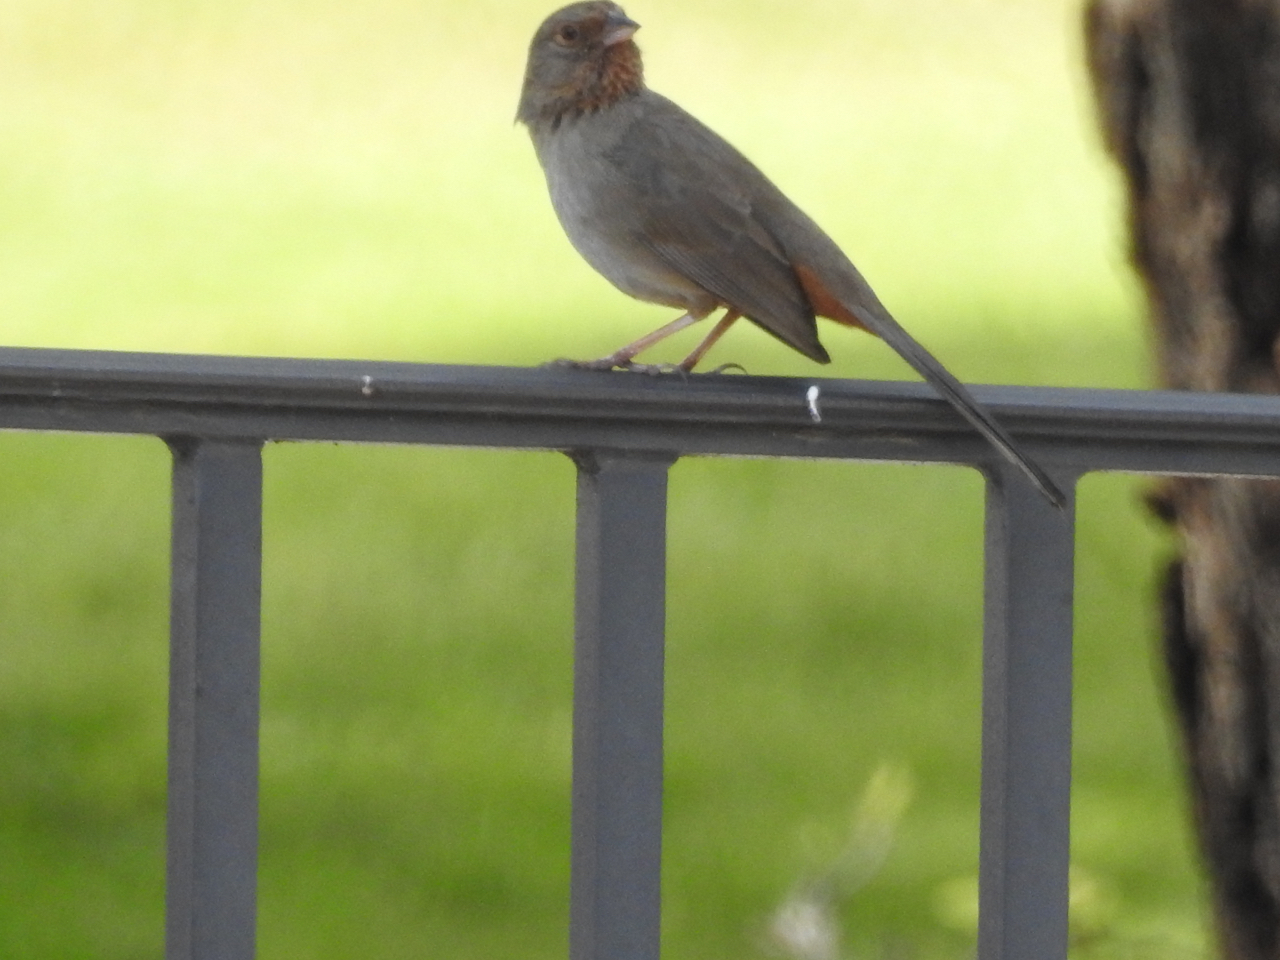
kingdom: Animalia
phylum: Chordata
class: Aves
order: Passeriformes
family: Passerellidae
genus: Melozone
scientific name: Melozone crissalis
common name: California towhee
